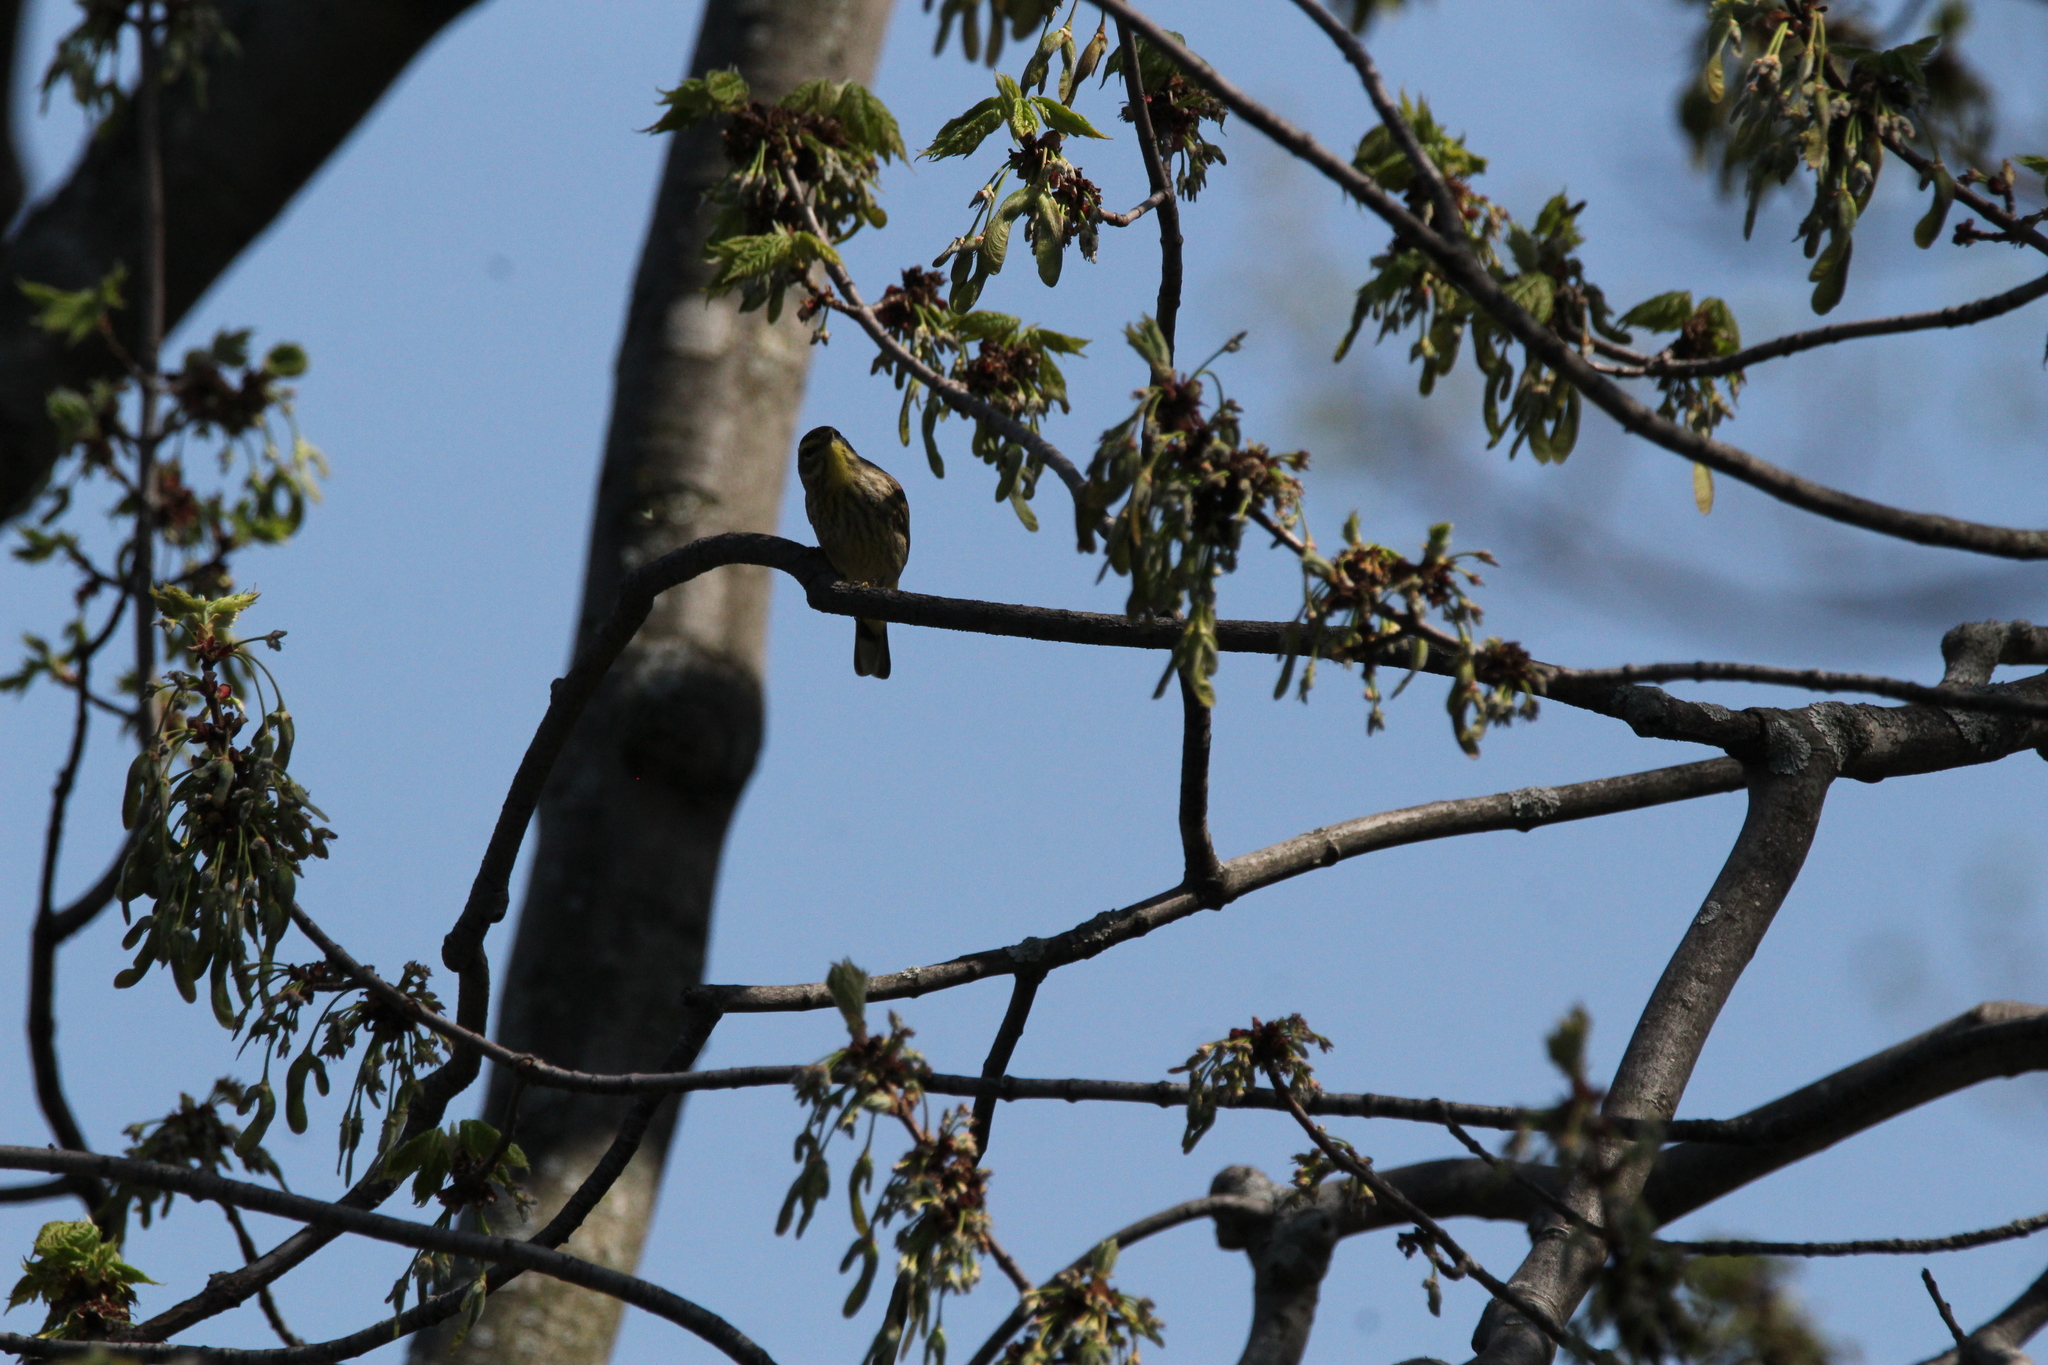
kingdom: Animalia
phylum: Chordata
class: Aves
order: Passeriformes
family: Parulidae
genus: Setophaga
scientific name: Setophaga palmarum
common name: Palm warbler
